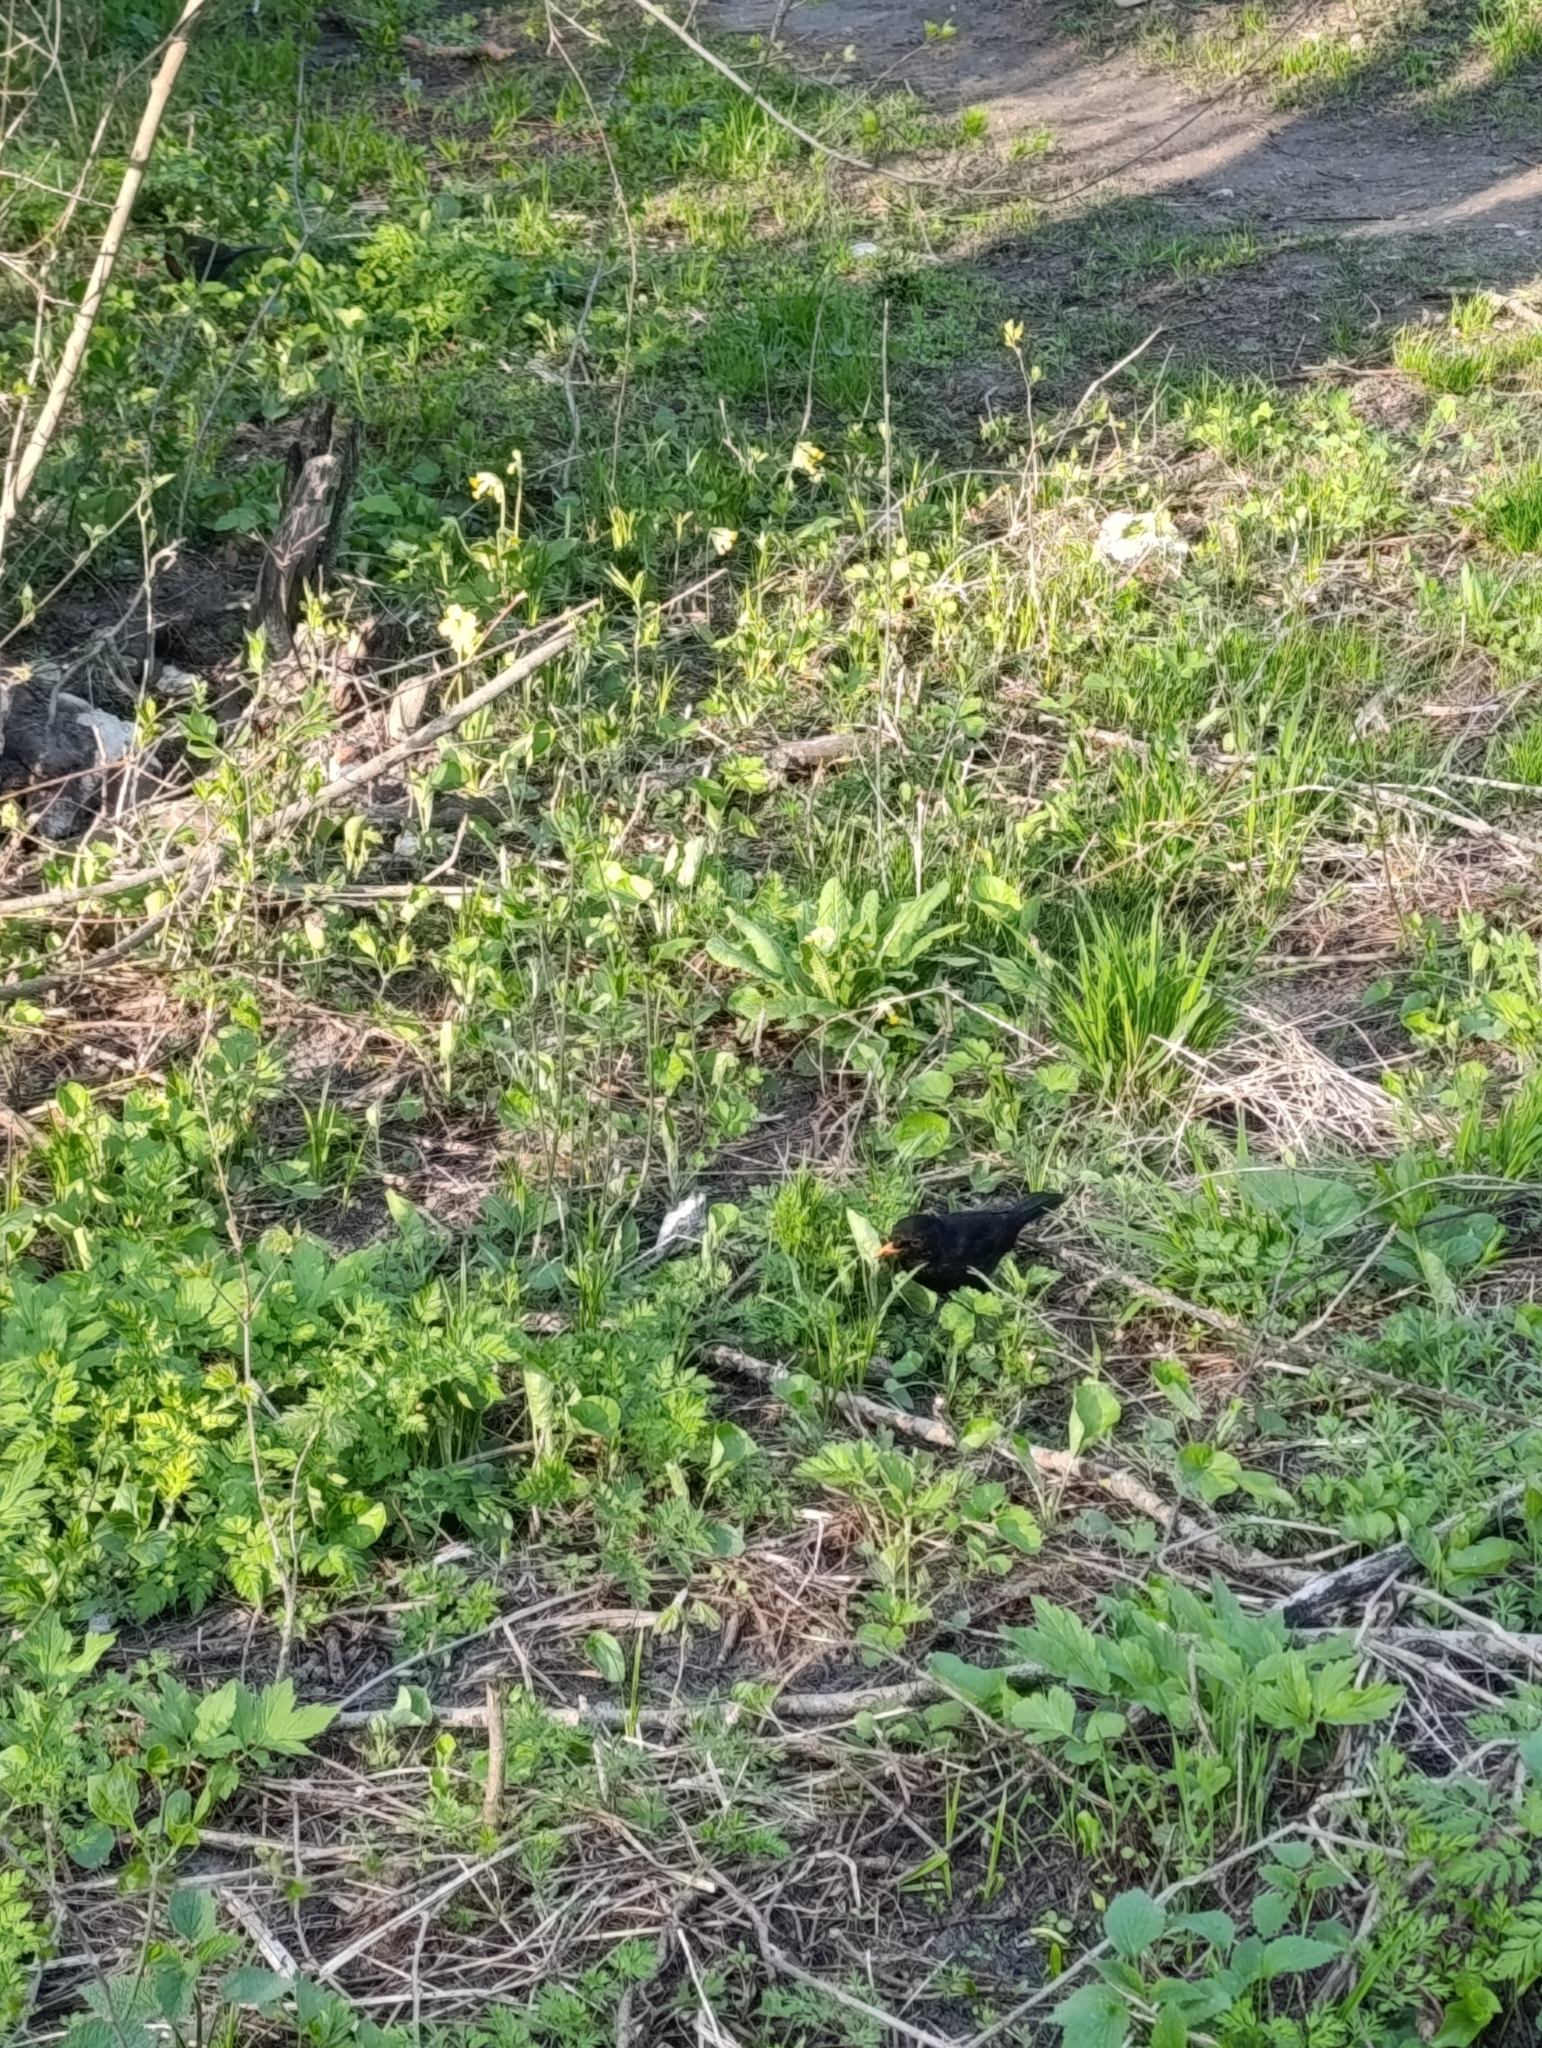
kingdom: Animalia
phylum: Chordata
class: Aves
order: Passeriformes
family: Turdidae
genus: Turdus
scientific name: Turdus merula
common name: Common blackbird
